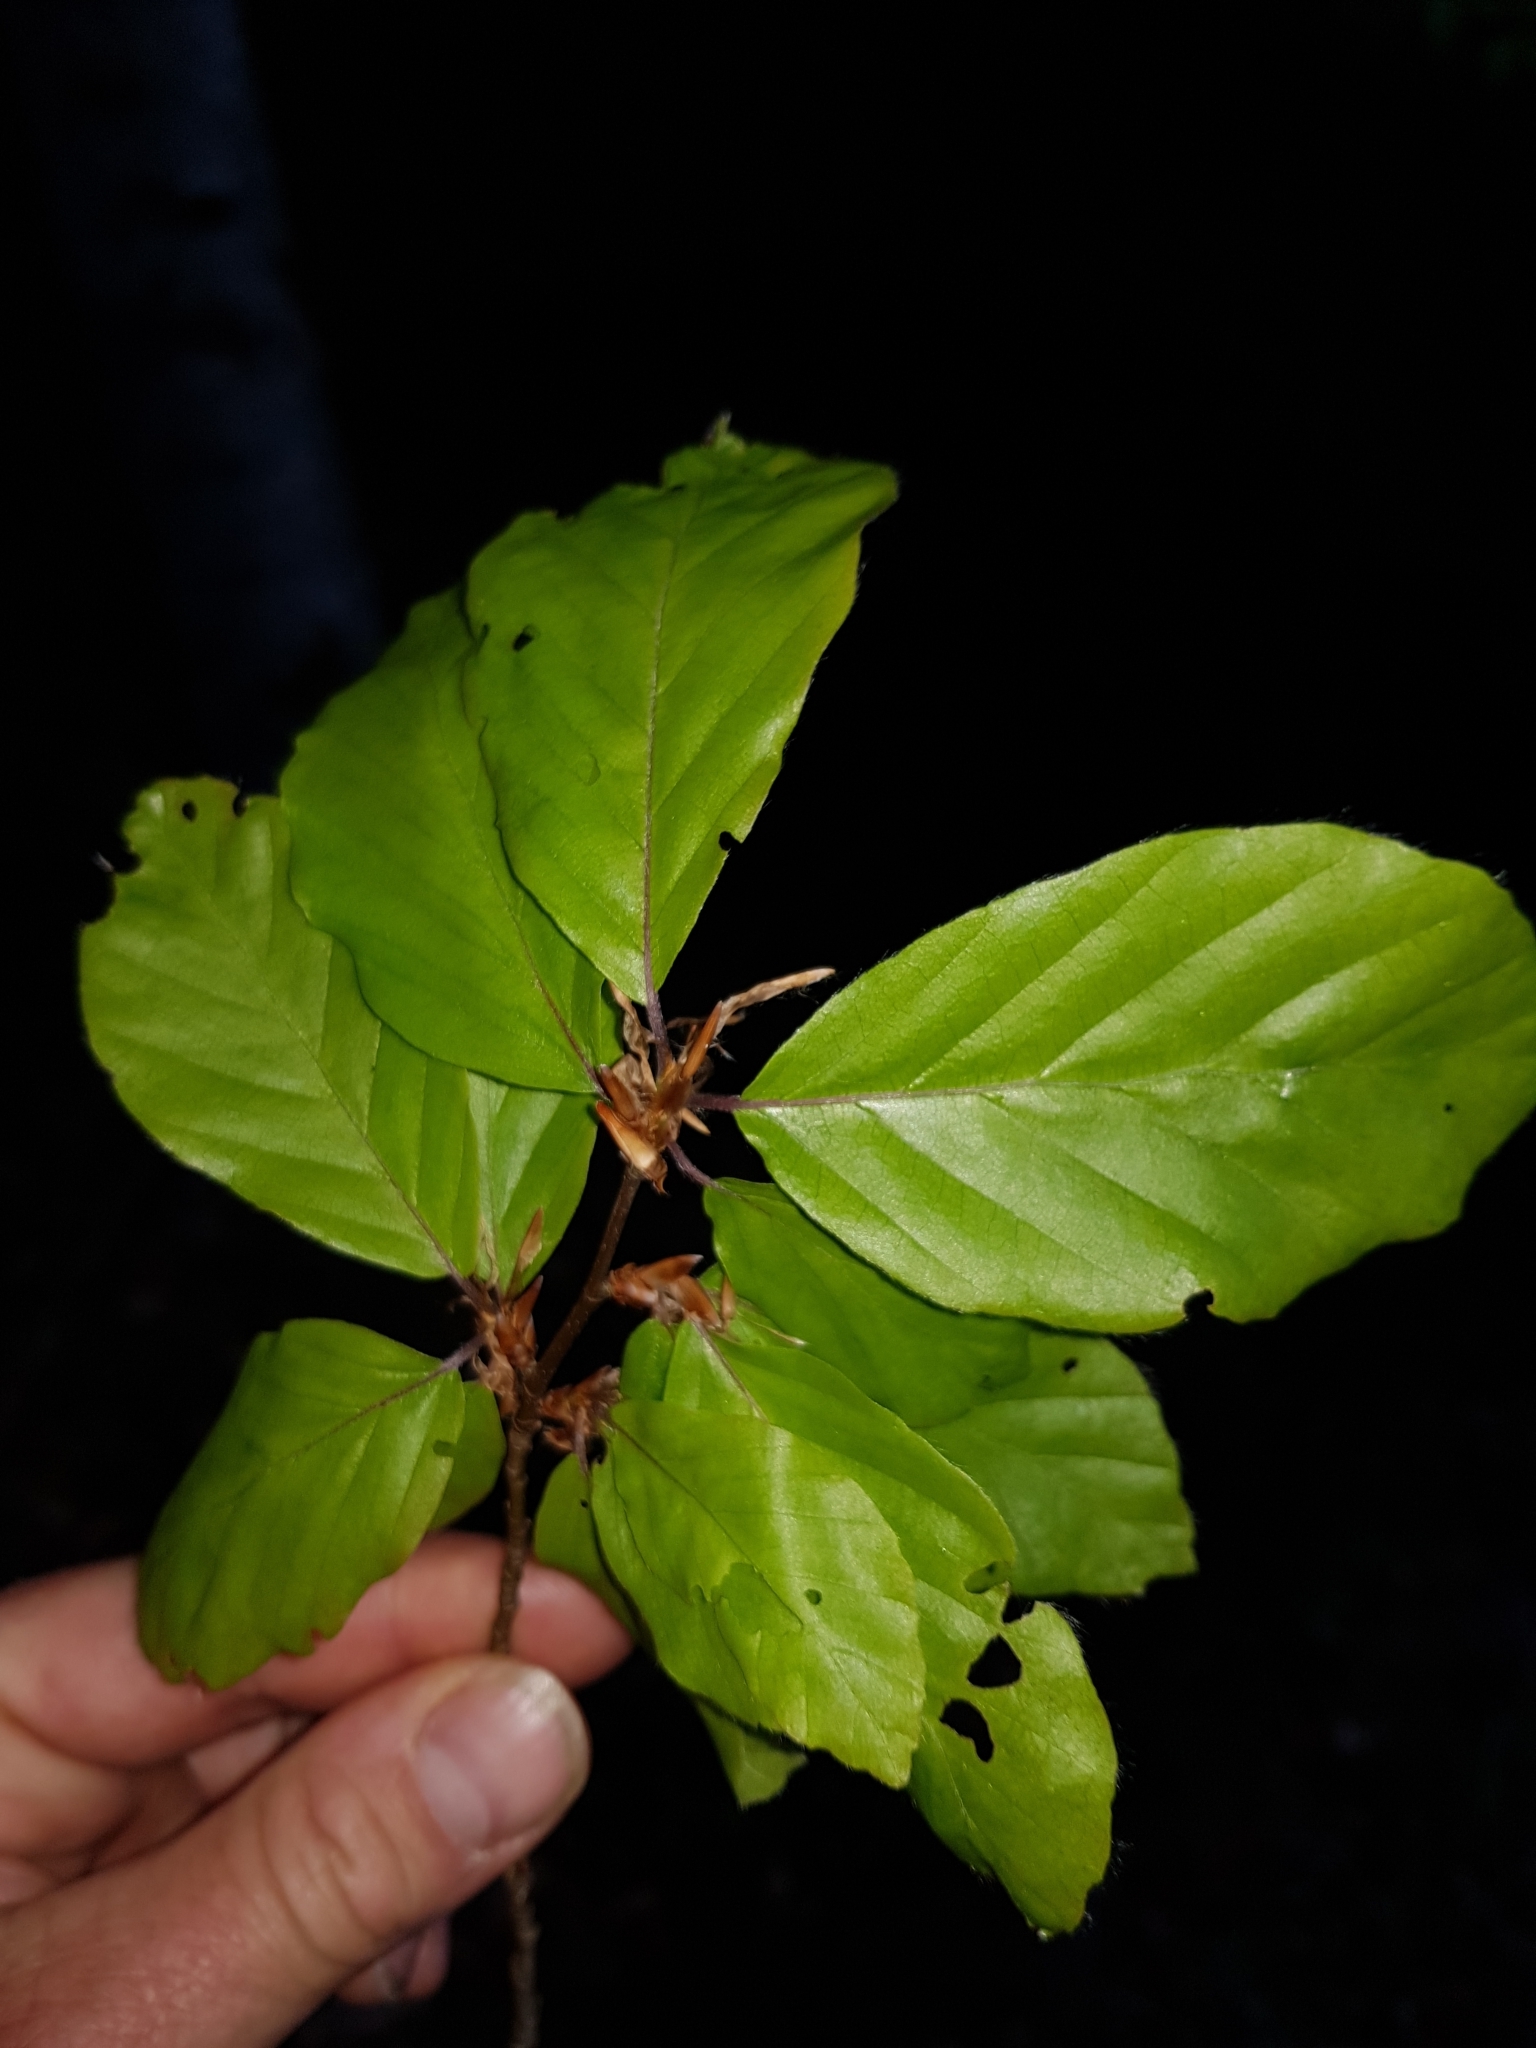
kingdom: Plantae
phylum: Tracheophyta
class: Magnoliopsida
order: Fagales
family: Fagaceae
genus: Fagus
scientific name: Fagus sylvatica
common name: Beech
